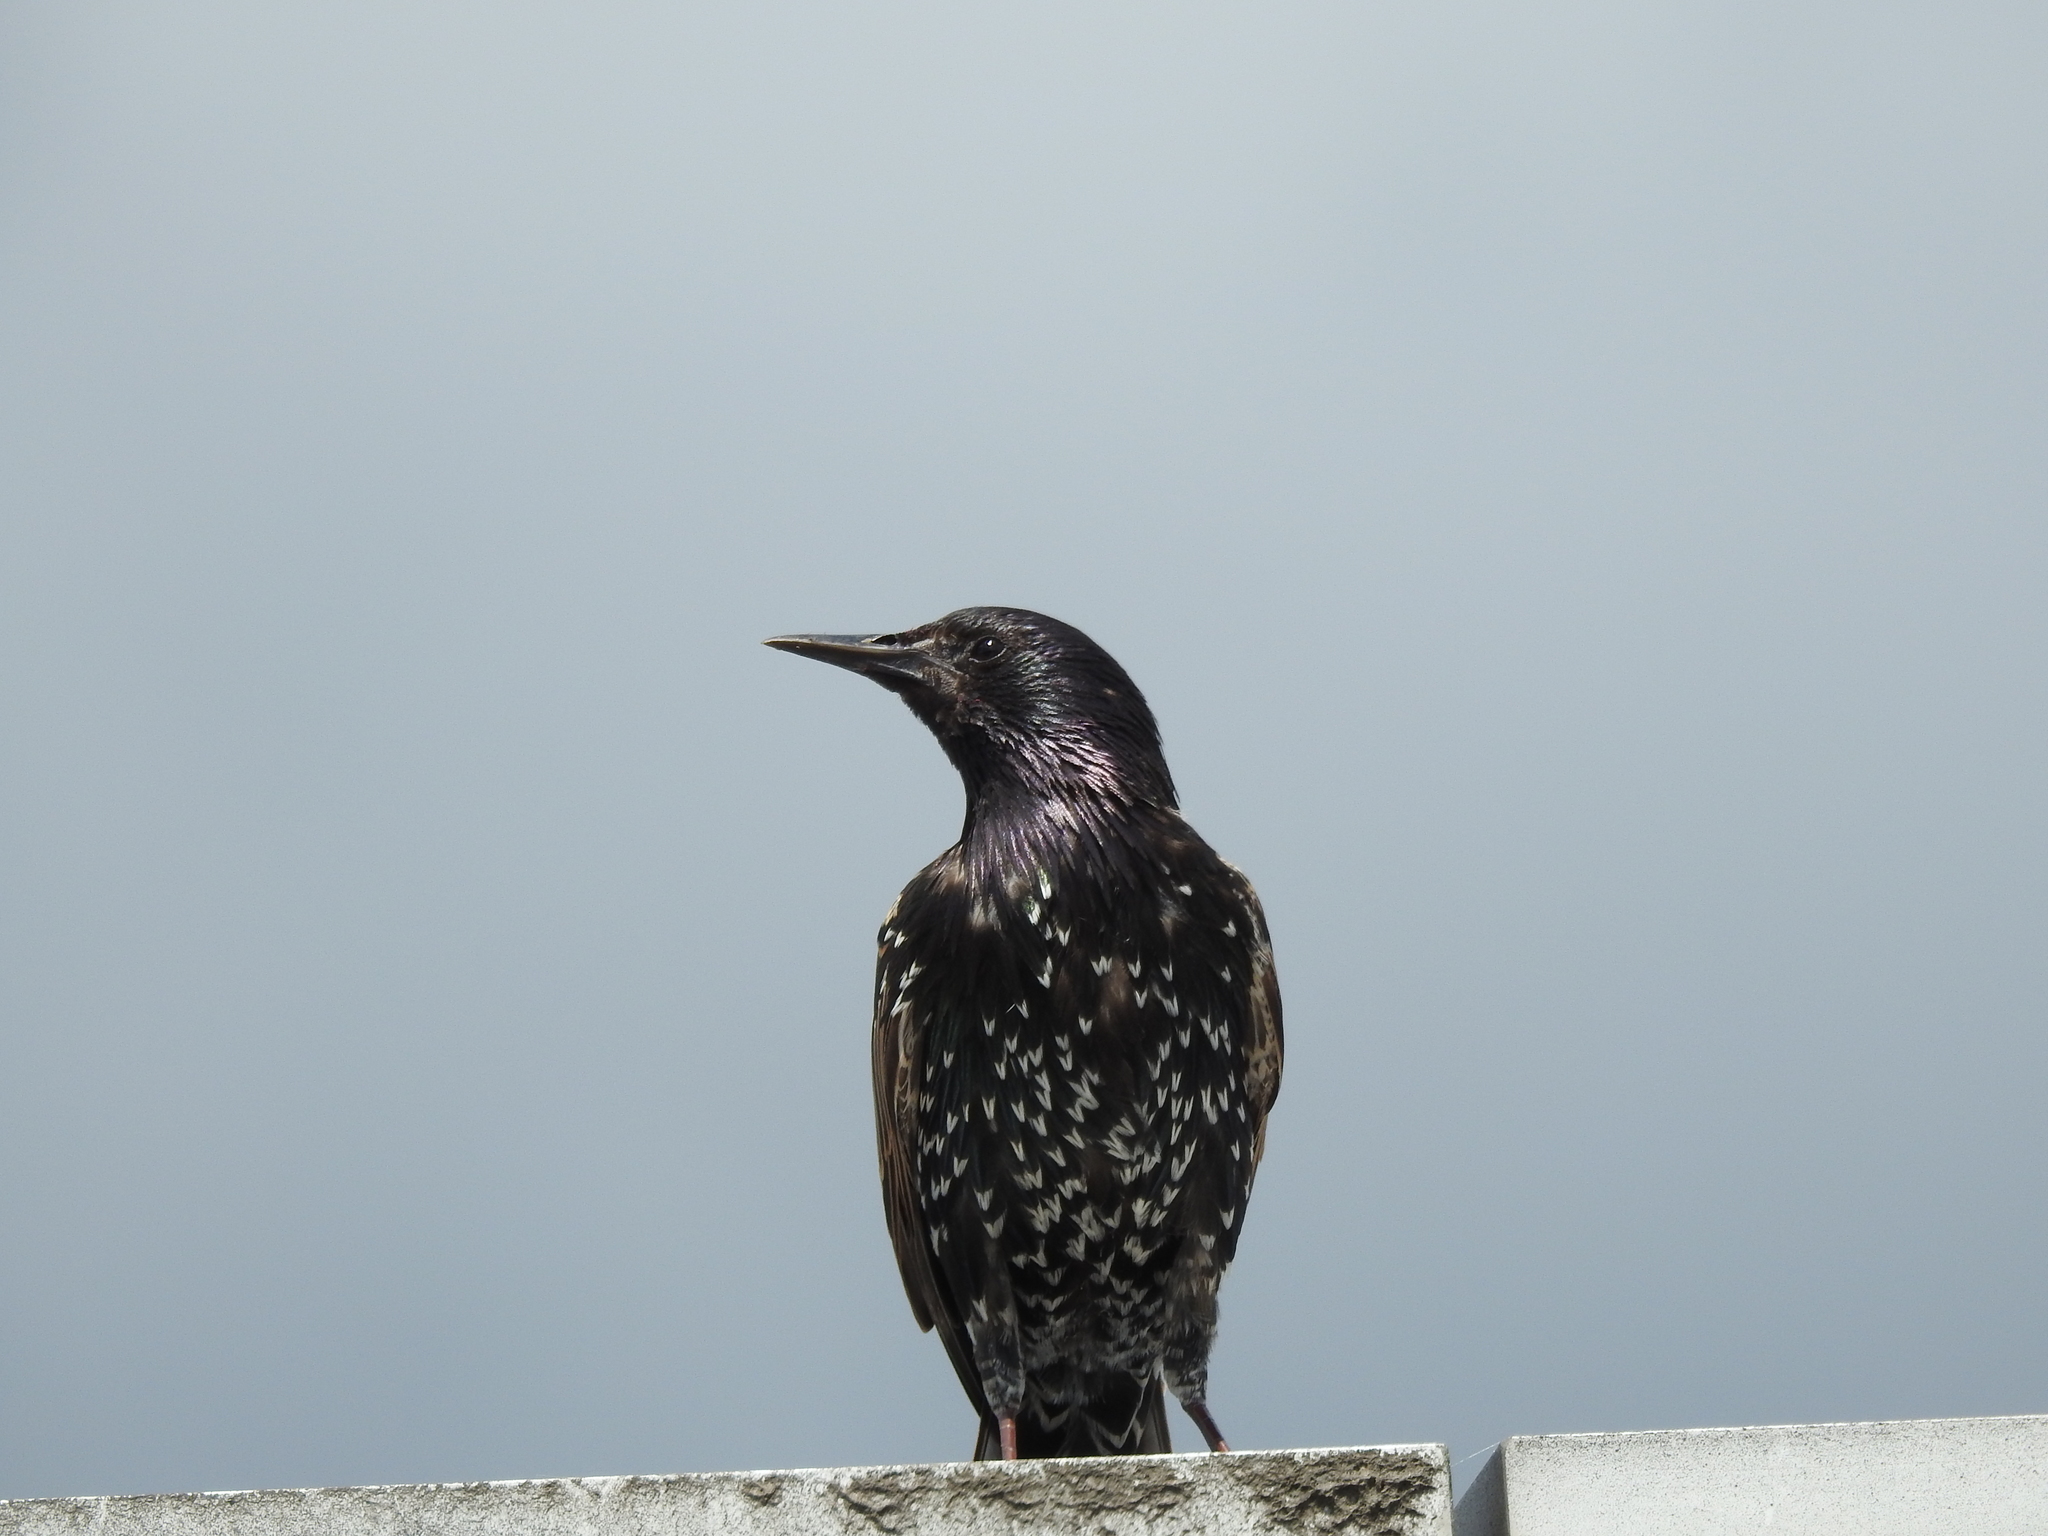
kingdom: Animalia
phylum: Chordata
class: Aves
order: Passeriformes
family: Sturnidae
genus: Sturnus
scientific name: Sturnus vulgaris
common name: Common starling
